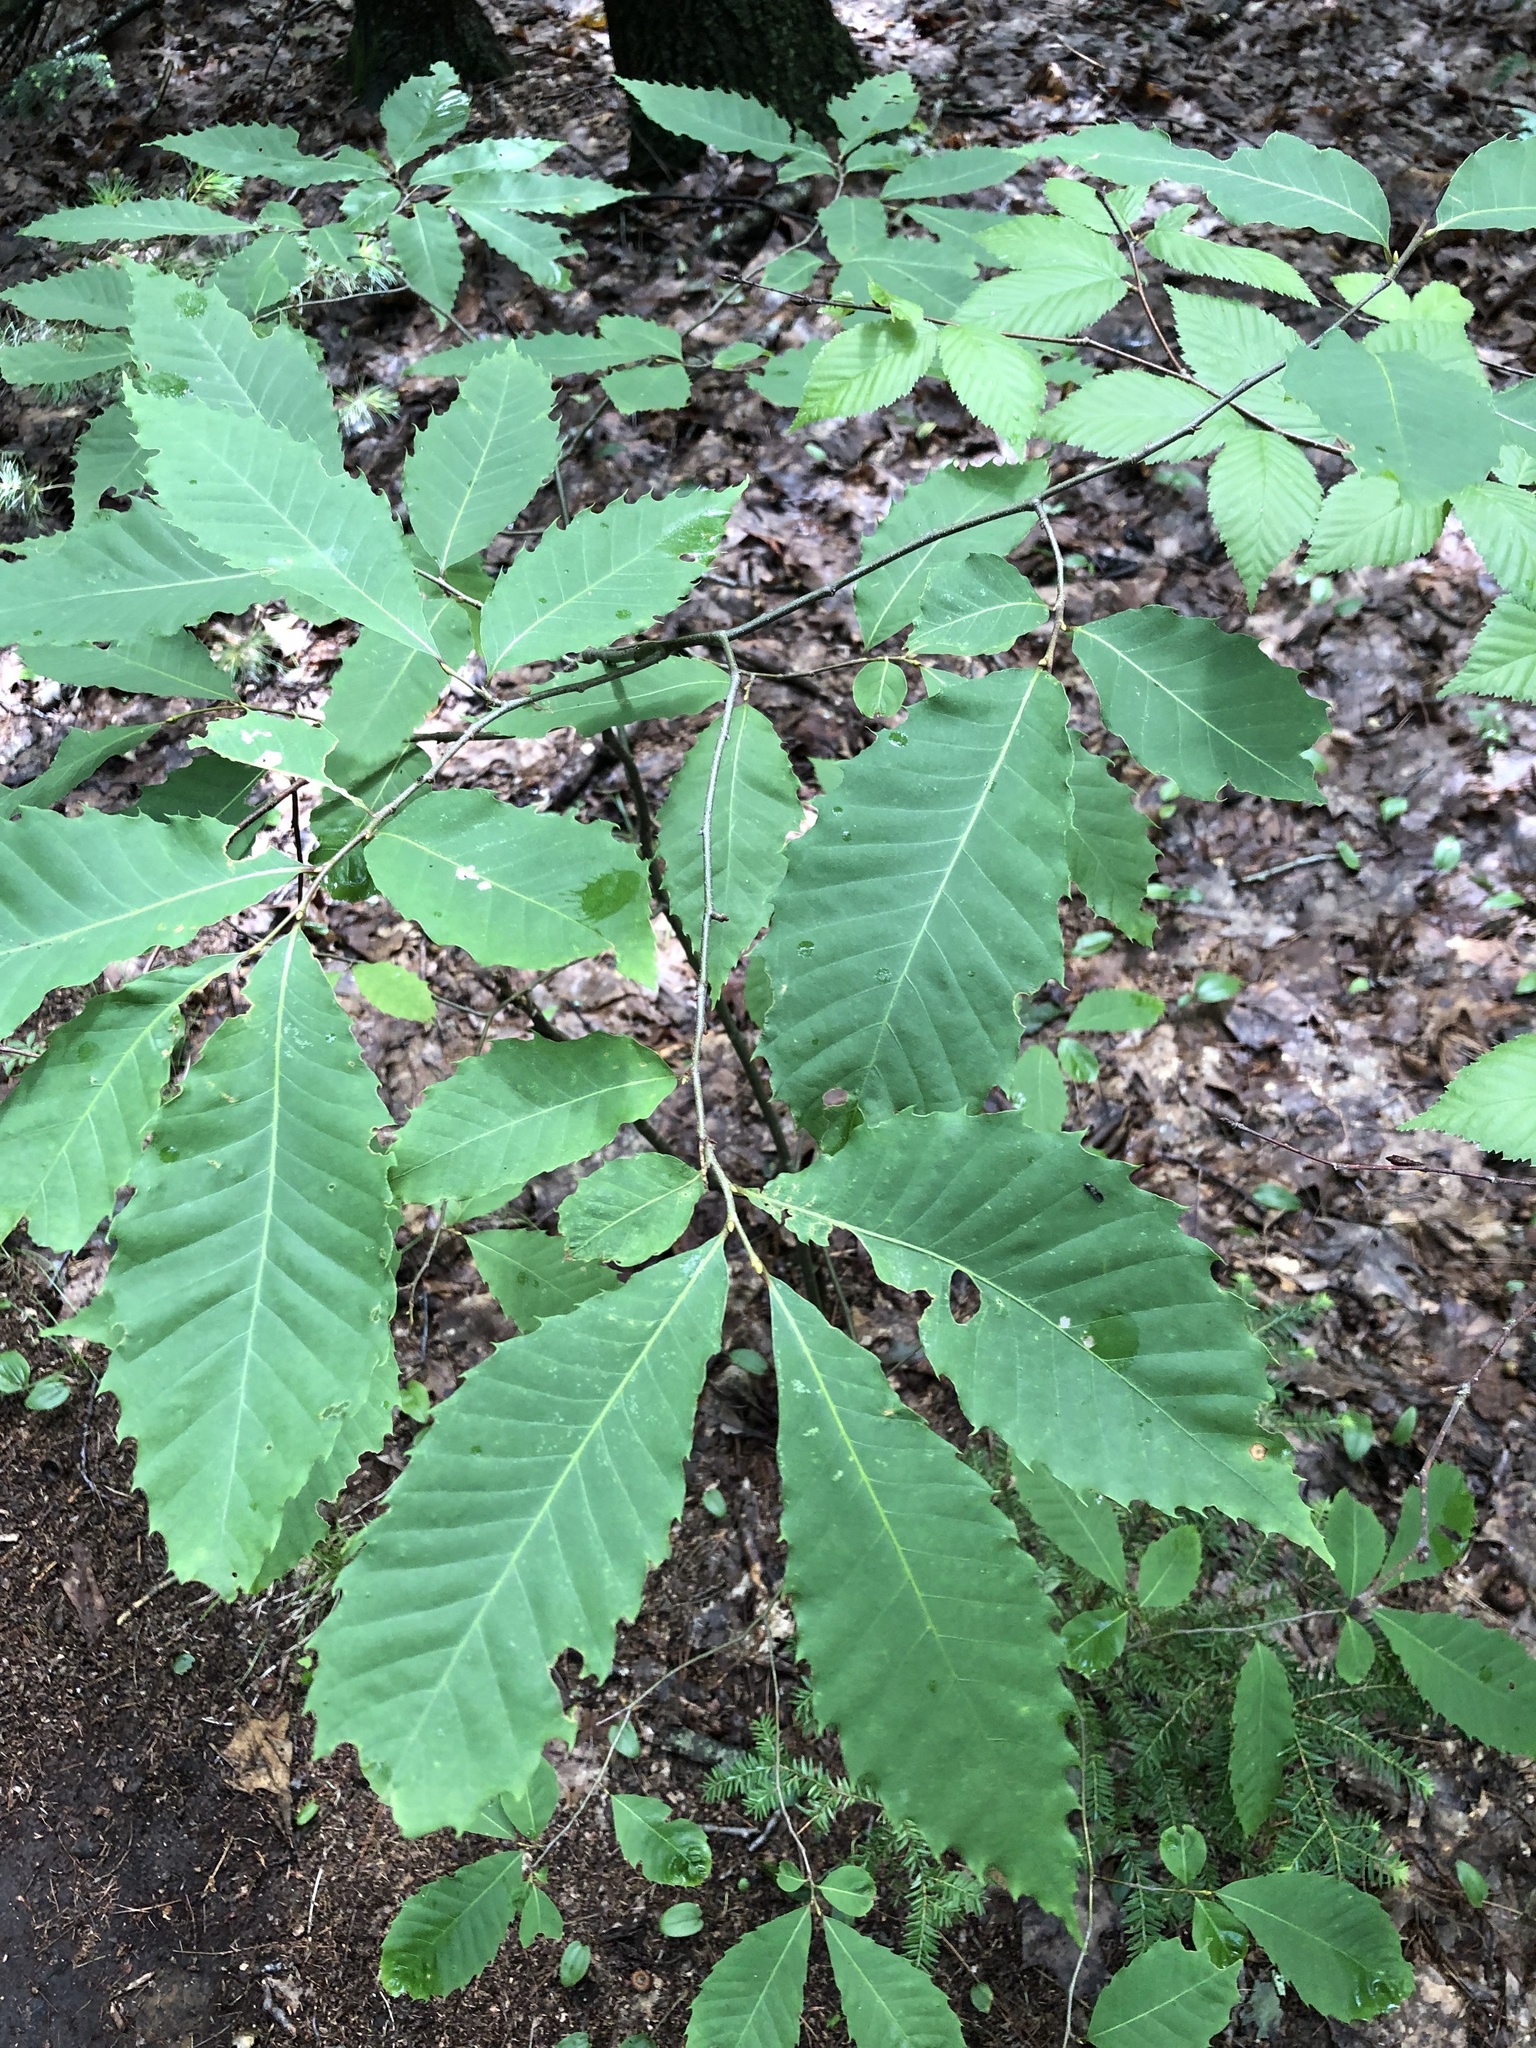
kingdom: Plantae
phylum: Tracheophyta
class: Magnoliopsida
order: Fagales
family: Fagaceae
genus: Castanea
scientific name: Castanea dentata
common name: American chestnut
